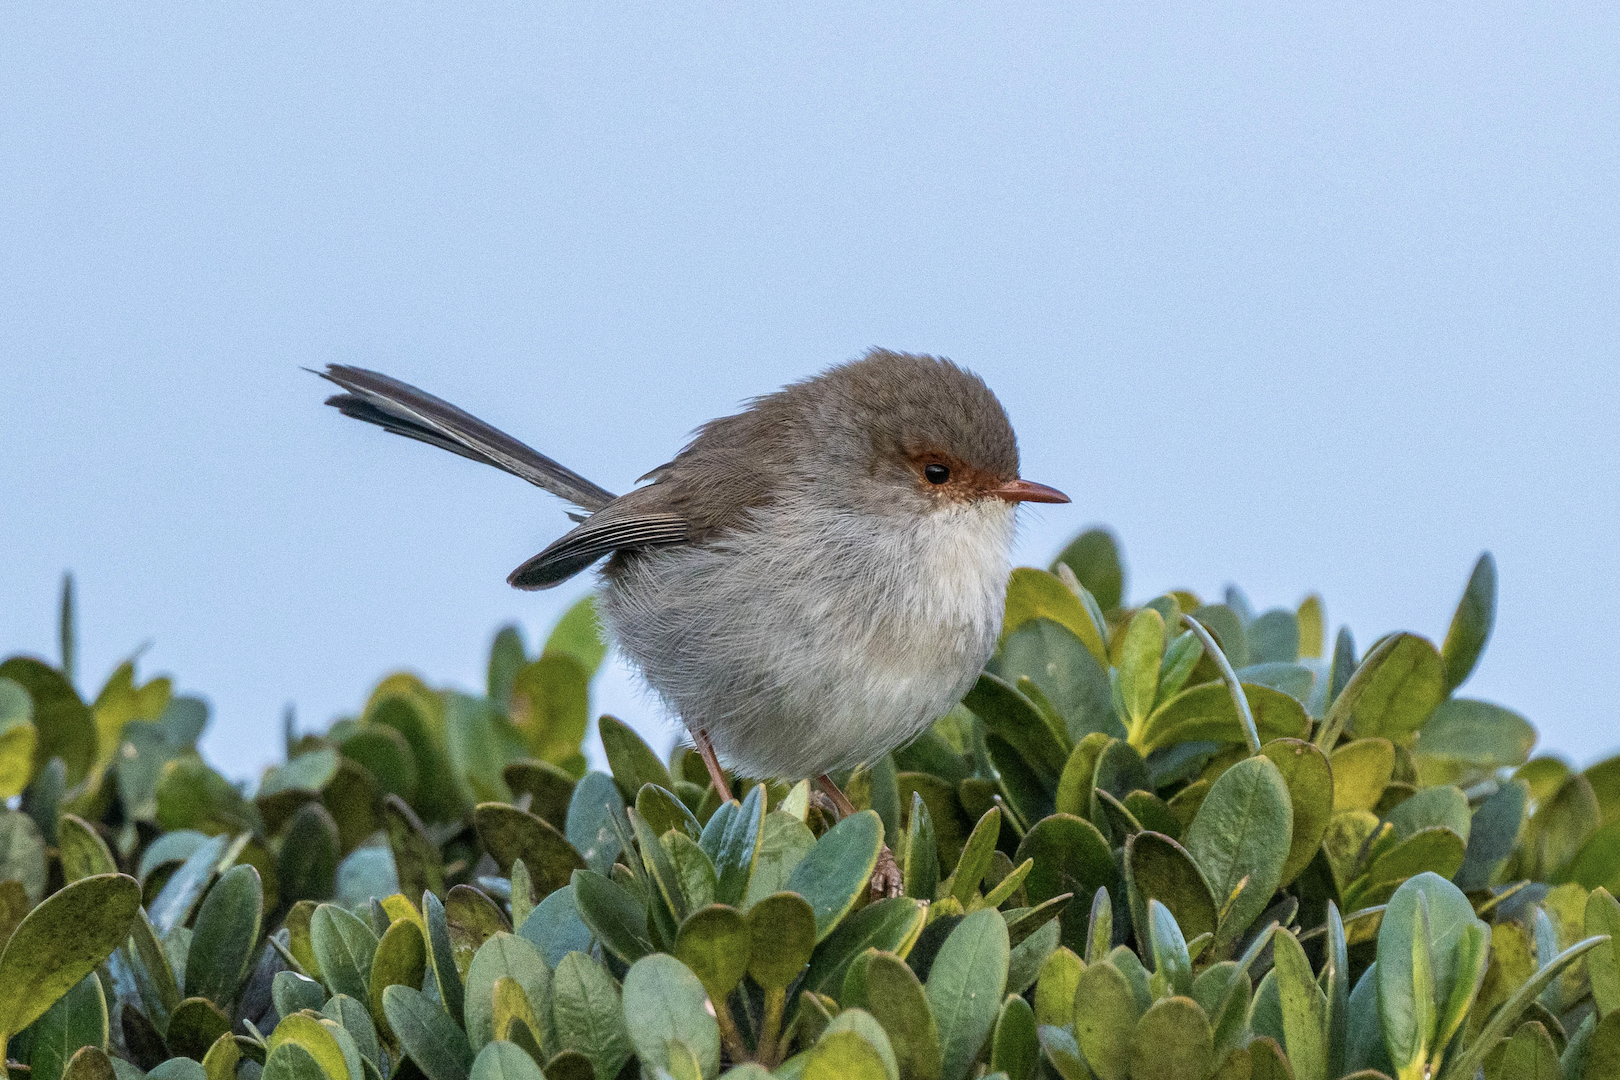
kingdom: Animalia
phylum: Chordata
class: Aves
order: Passeriformes
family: Maluridae
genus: Malurus
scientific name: Malurus cyaneus
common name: Superb fairywren
